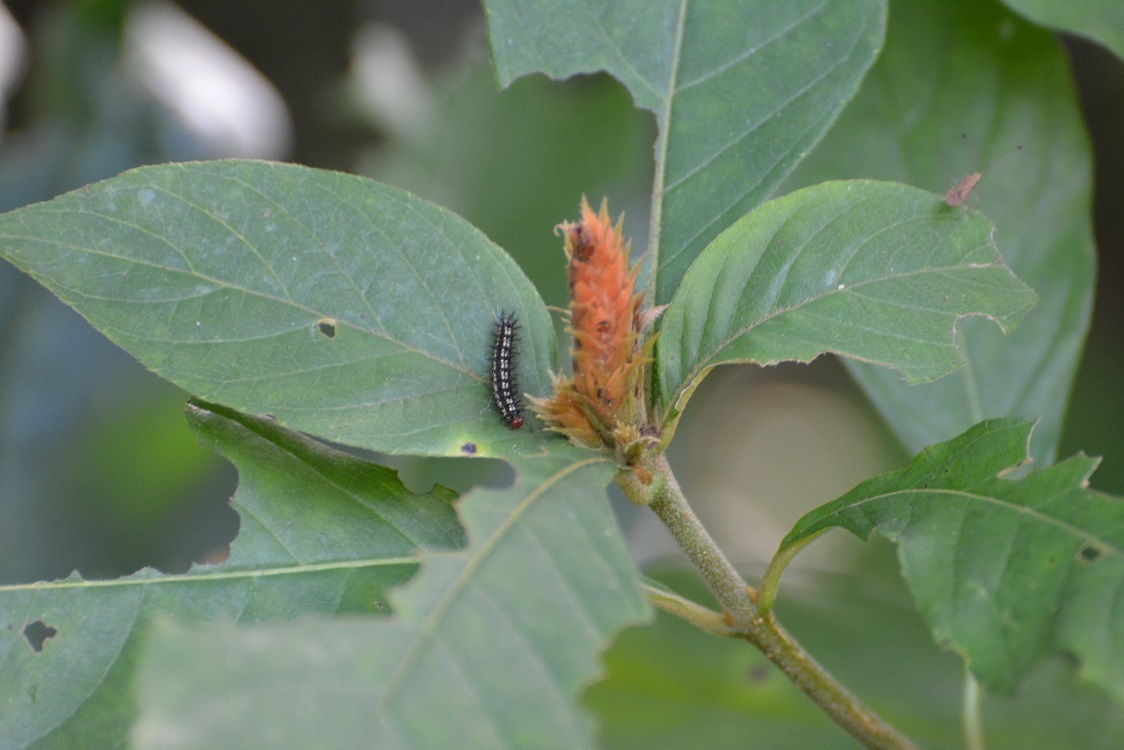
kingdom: Plantae
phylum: Tracheophyta
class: Magnoliopsida
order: Lamiales
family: Acanthaceae
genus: Aphelandra
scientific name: Aphelandra scabra
